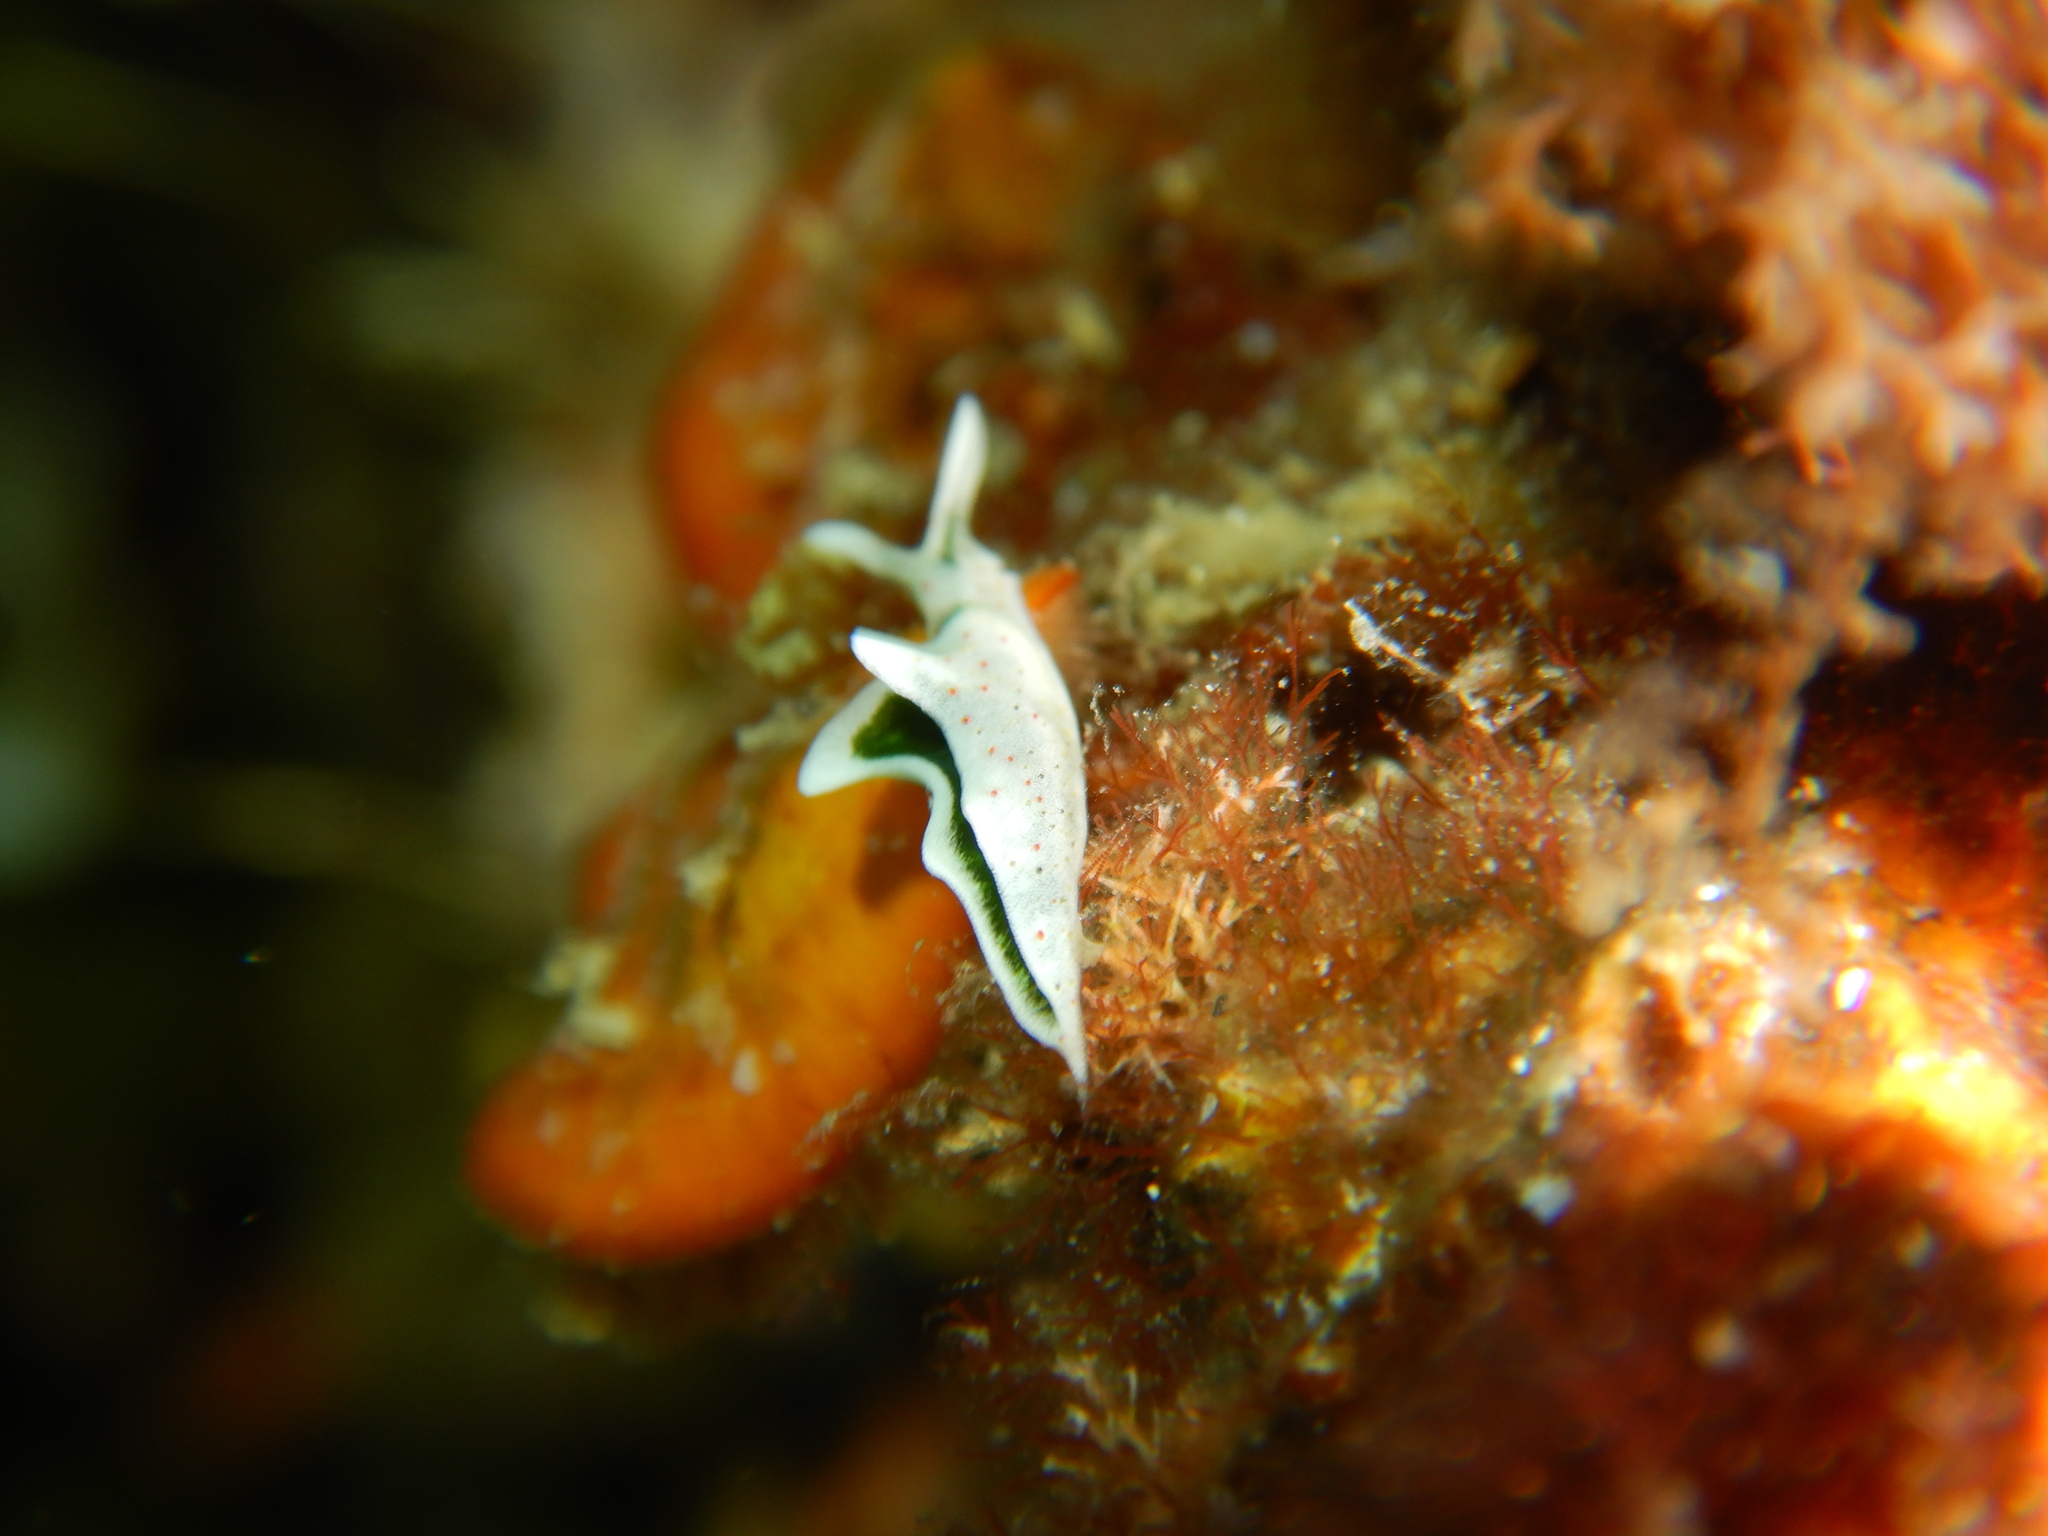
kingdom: Animalia
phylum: Mollusca
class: Gastropoda
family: Plakobranchidae
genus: Elysia
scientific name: Elysia timida
